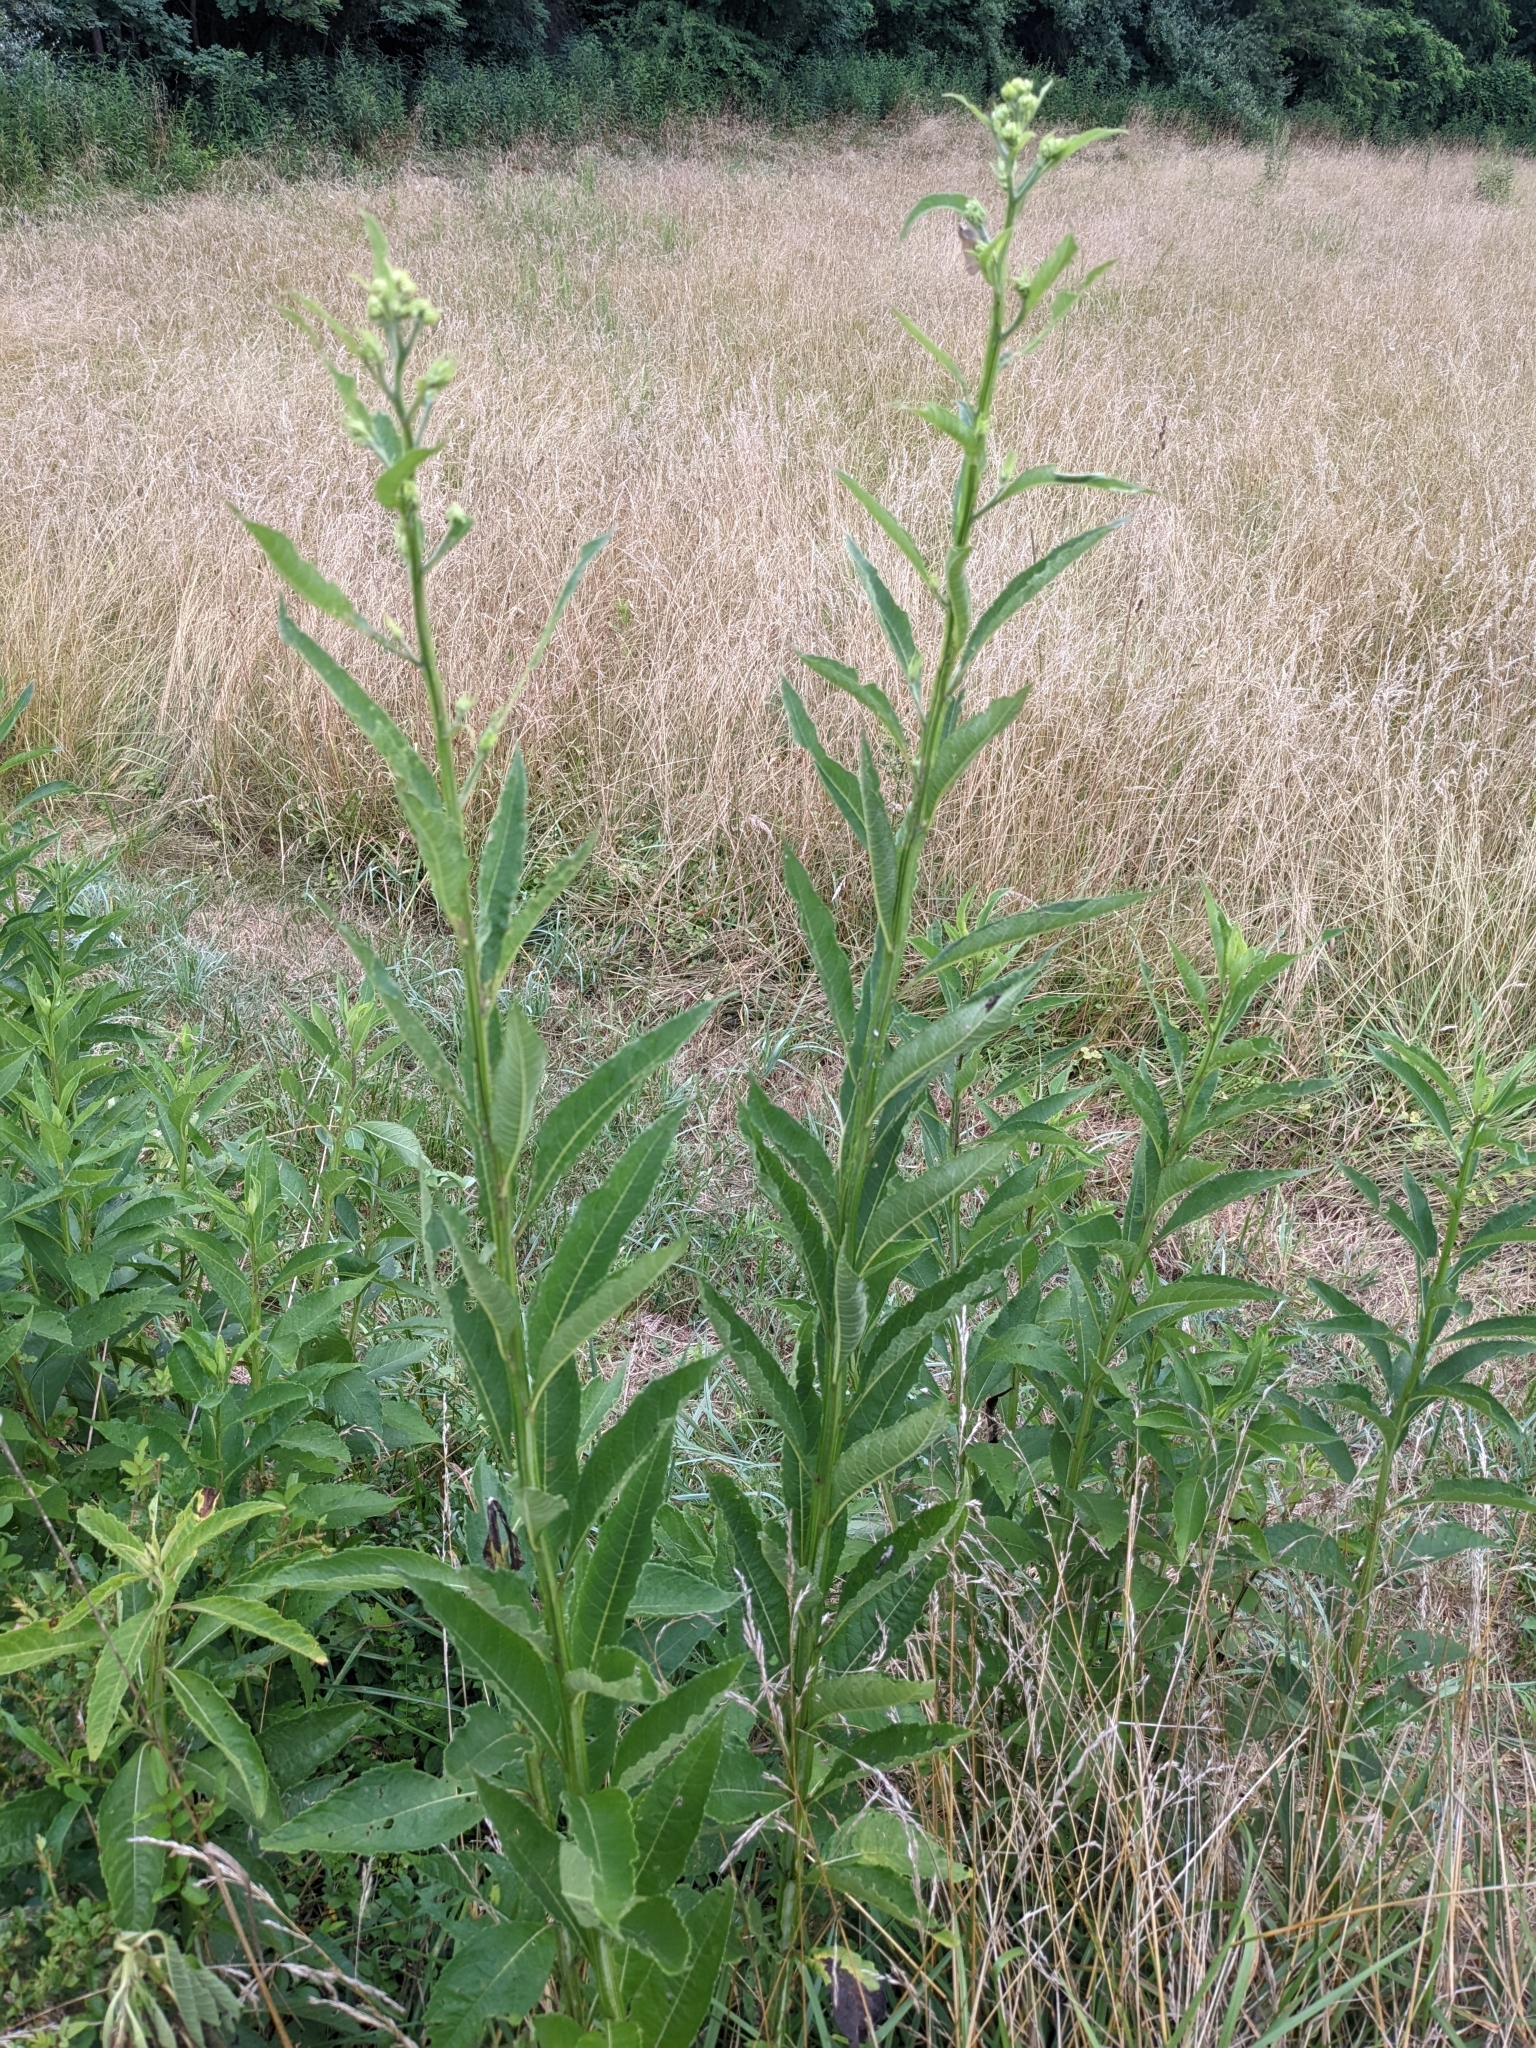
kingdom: Plantae
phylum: Tracheophyta
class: Magnoliopsida
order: Asterales
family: Asteraceae
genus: Verbesina
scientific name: Verbesina alternifolia
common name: Wingstem
